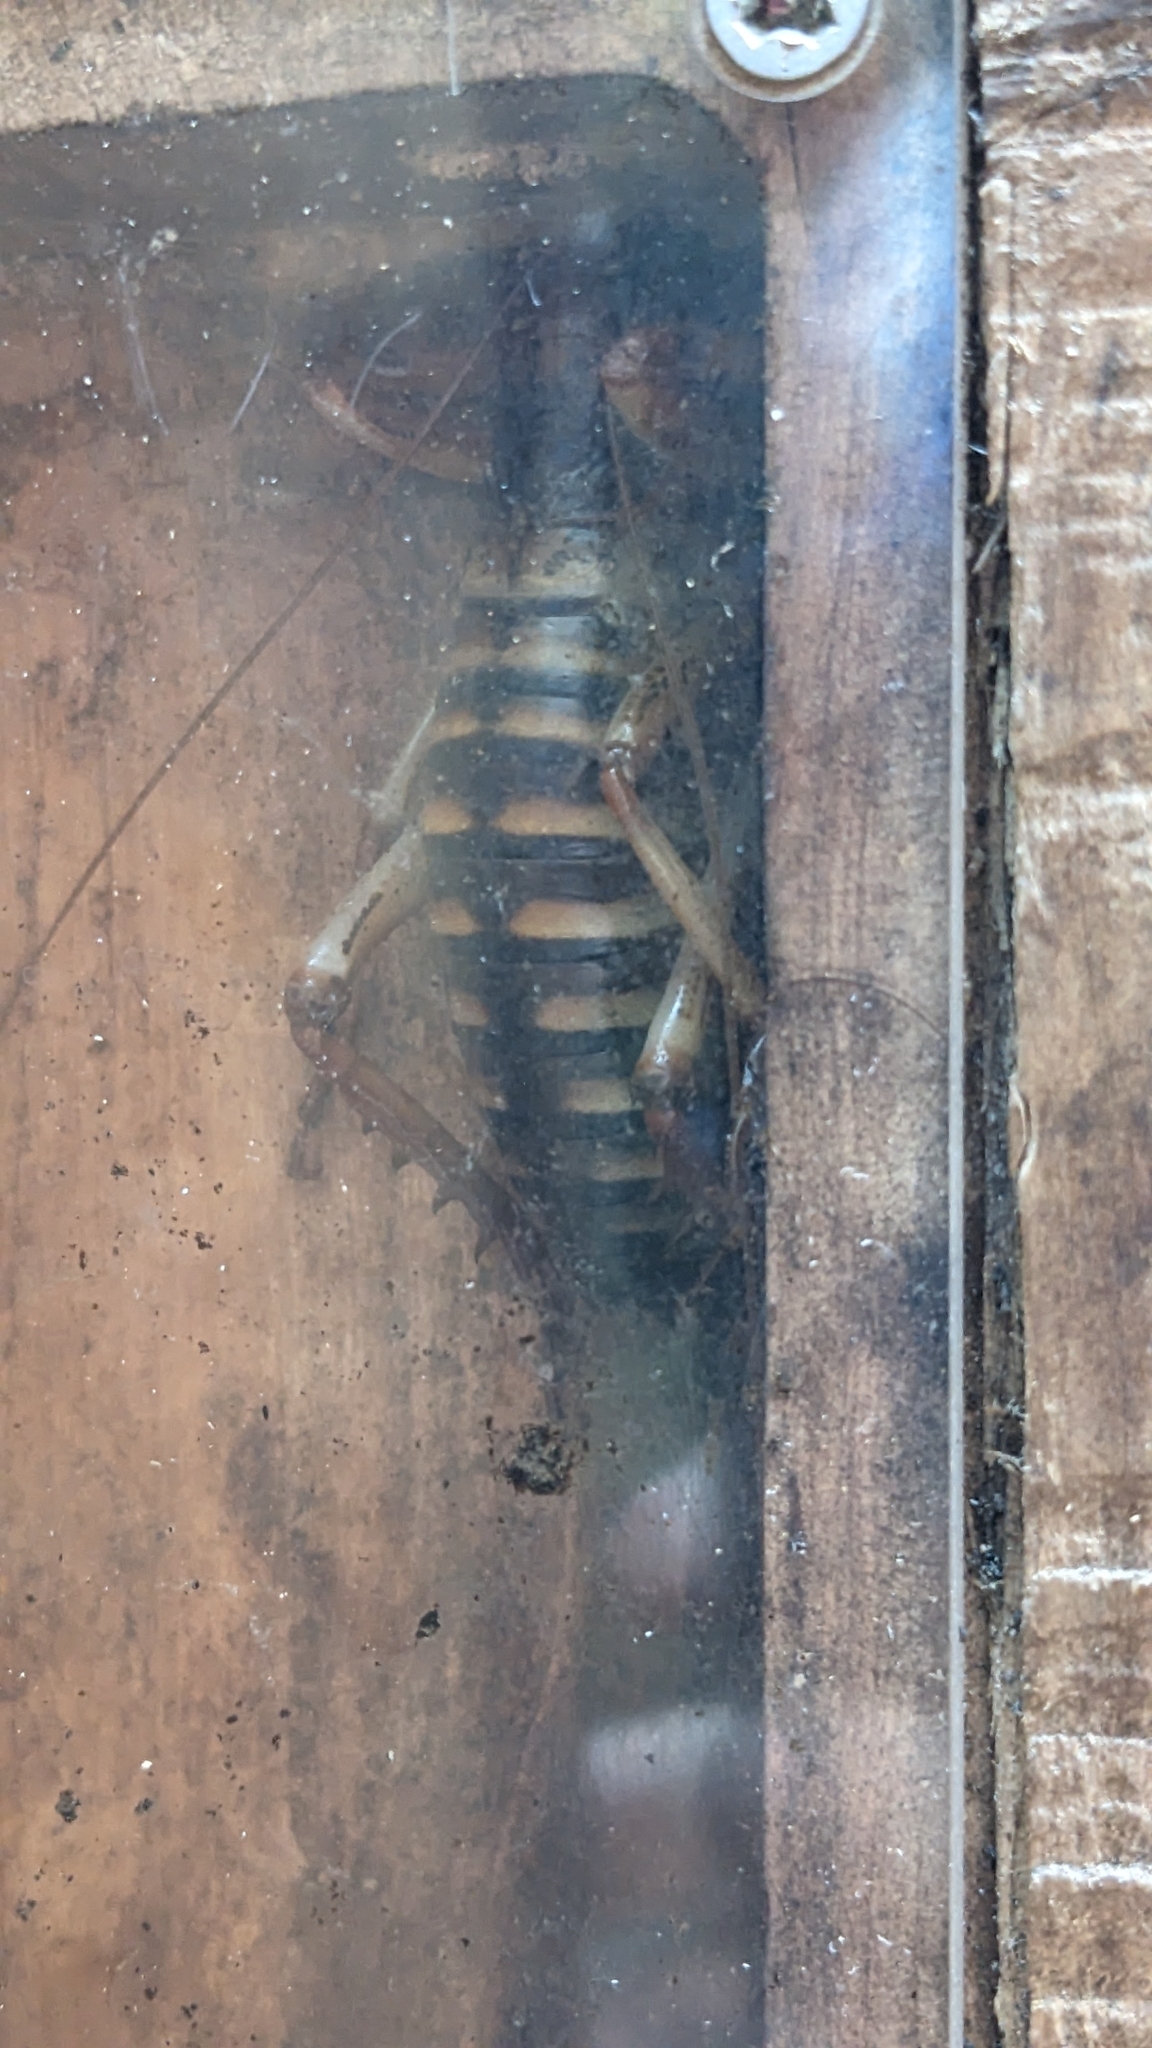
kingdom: Animalia
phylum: Arthropoda
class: Insecta
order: Orthoptera
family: Anostostomatidae
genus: Hemideina
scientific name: Hemideina crassidens
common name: Wellington tree weta
